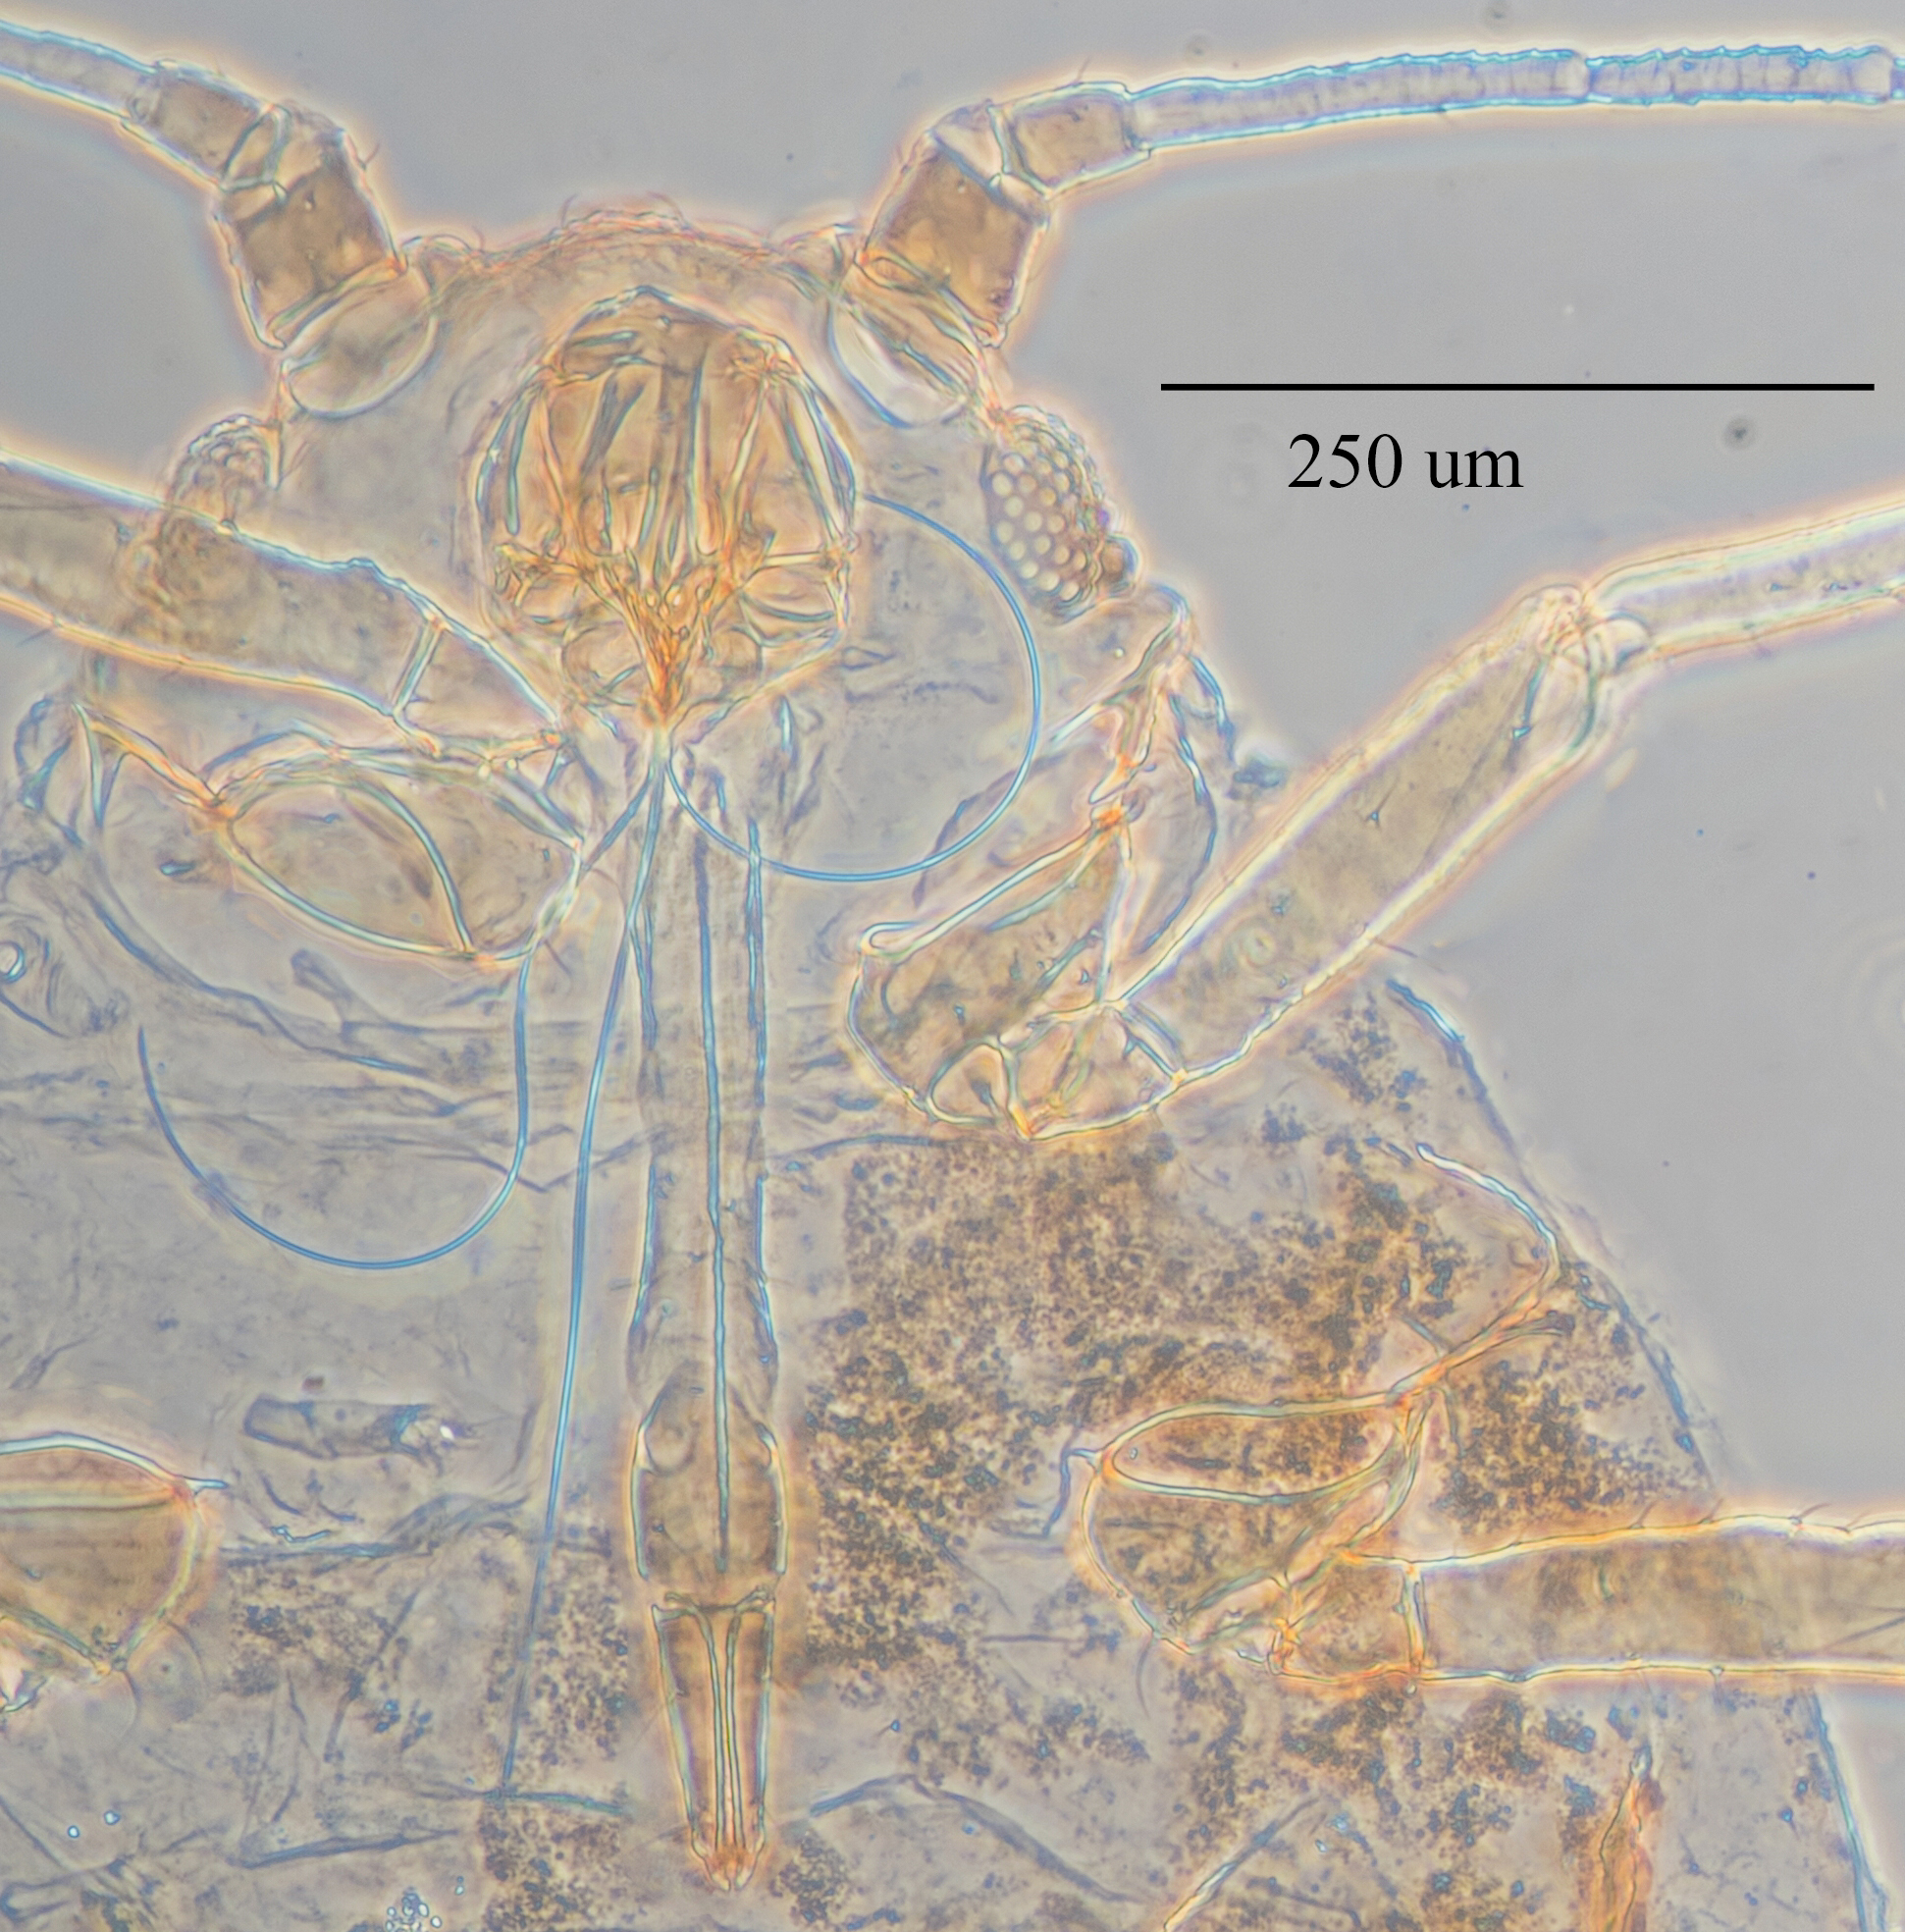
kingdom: Animalia
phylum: Arthropoda
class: Insecta
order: Hemiptera
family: Aphididae
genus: Aphis
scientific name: Aphis gossypii
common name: Melon aphid
